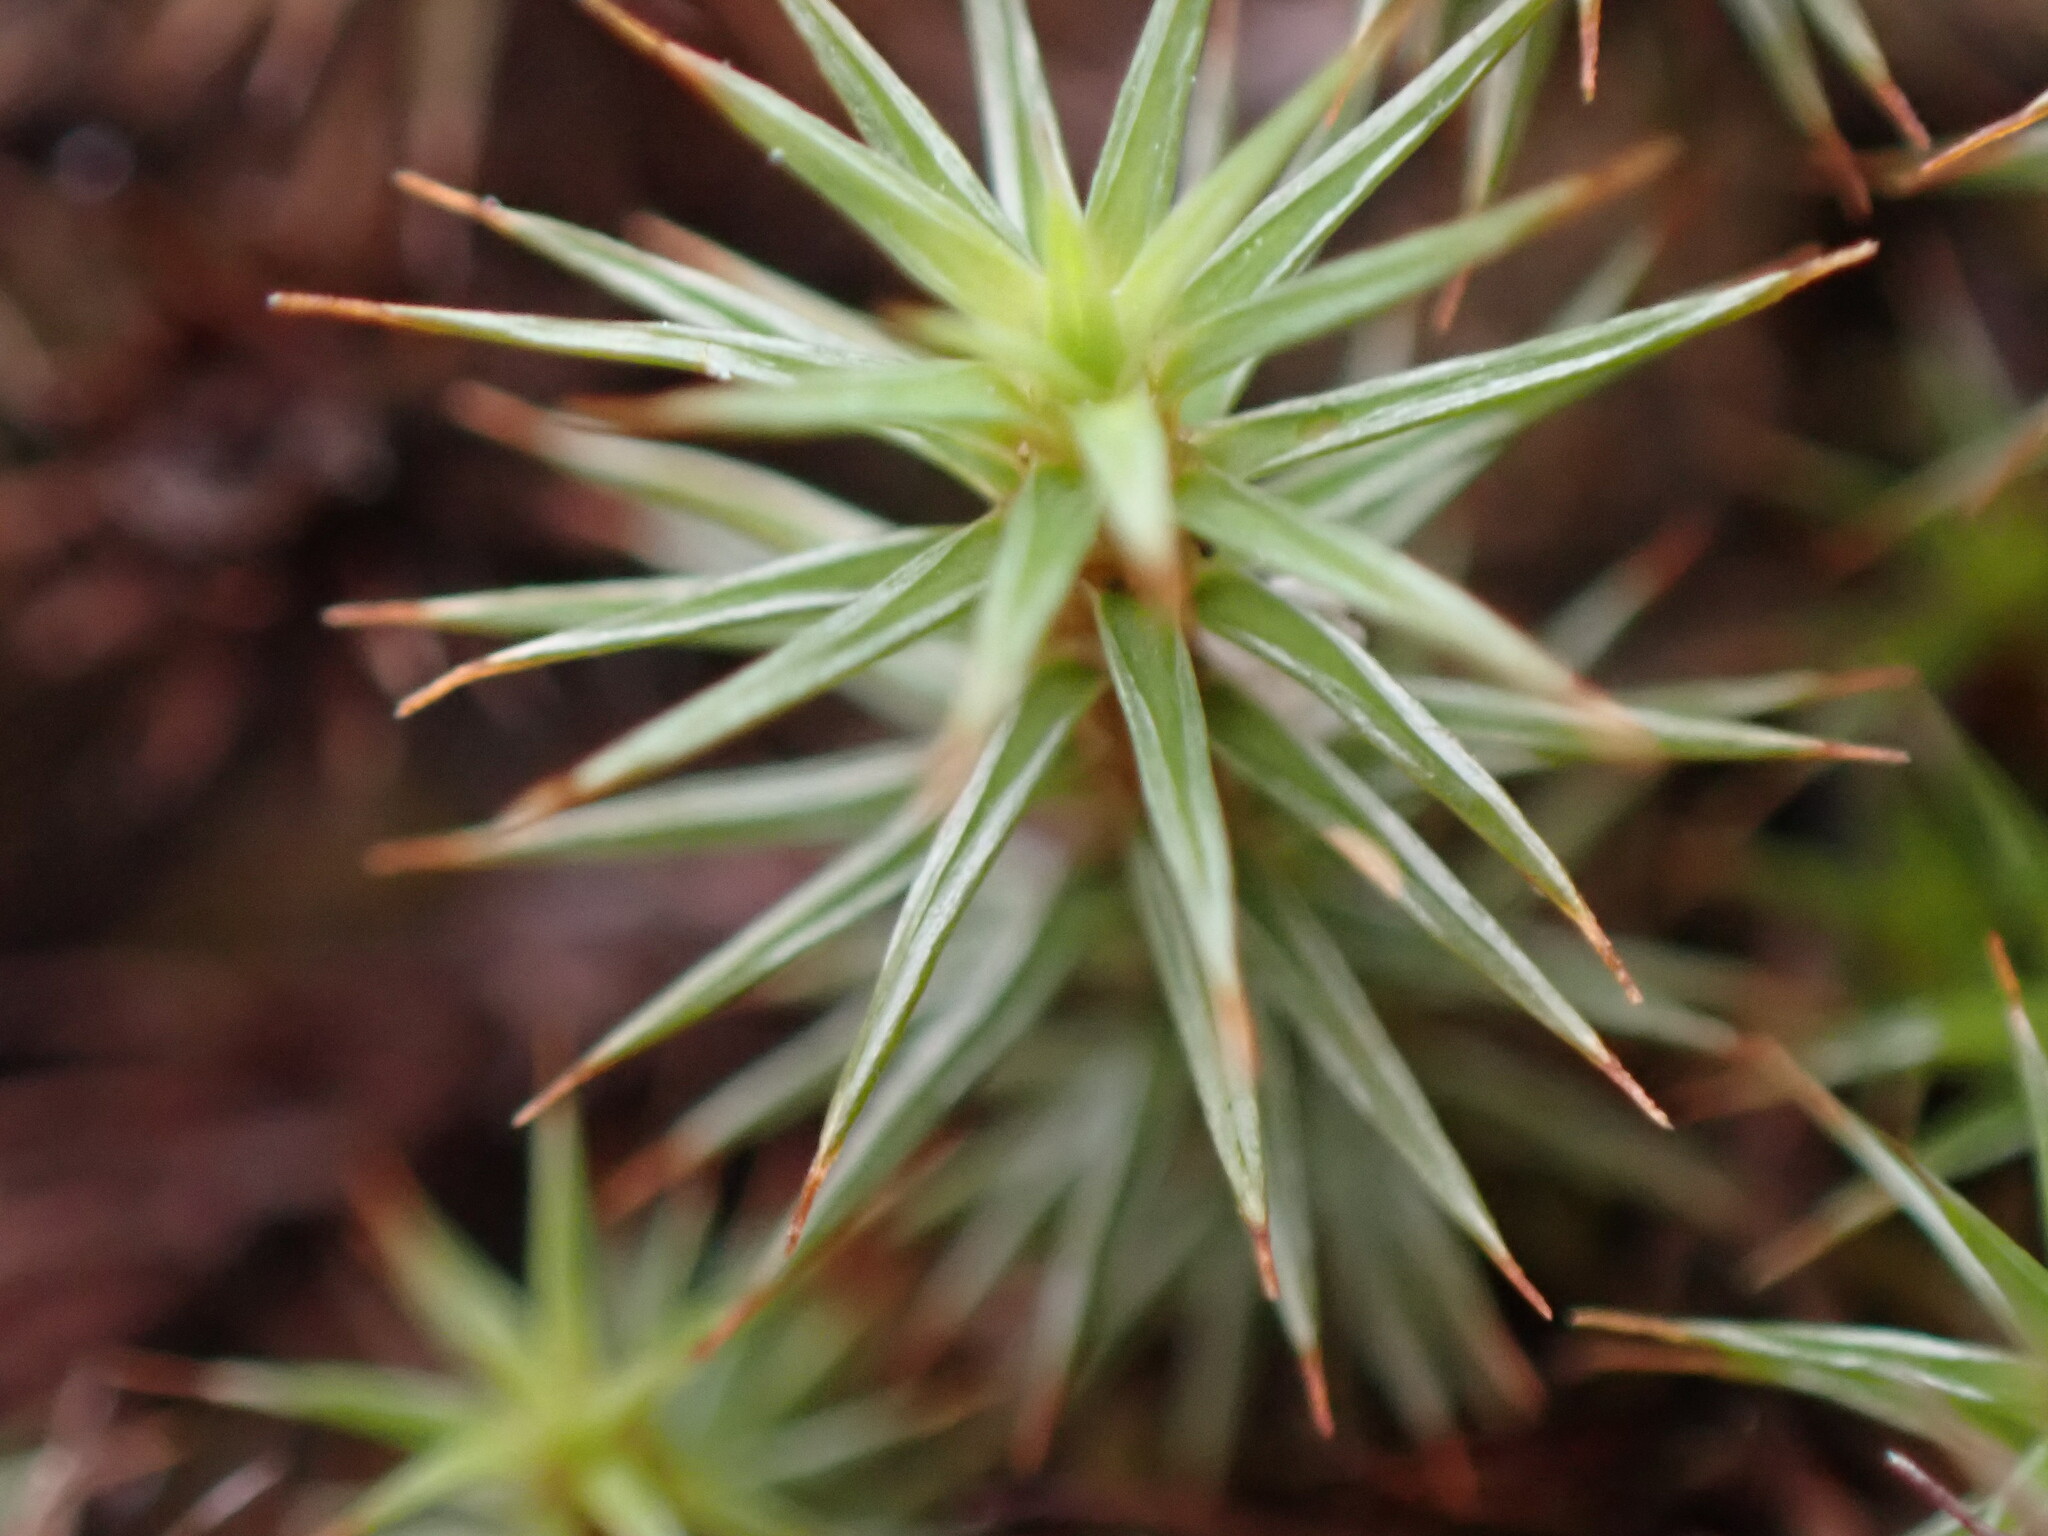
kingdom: Plantae
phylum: Bryophyta
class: Polytrichopsida
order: Polytrichales
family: Polytrichaceae
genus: Polytrichum
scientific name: Polytrichum juniperinum
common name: Juniper haircap moss
